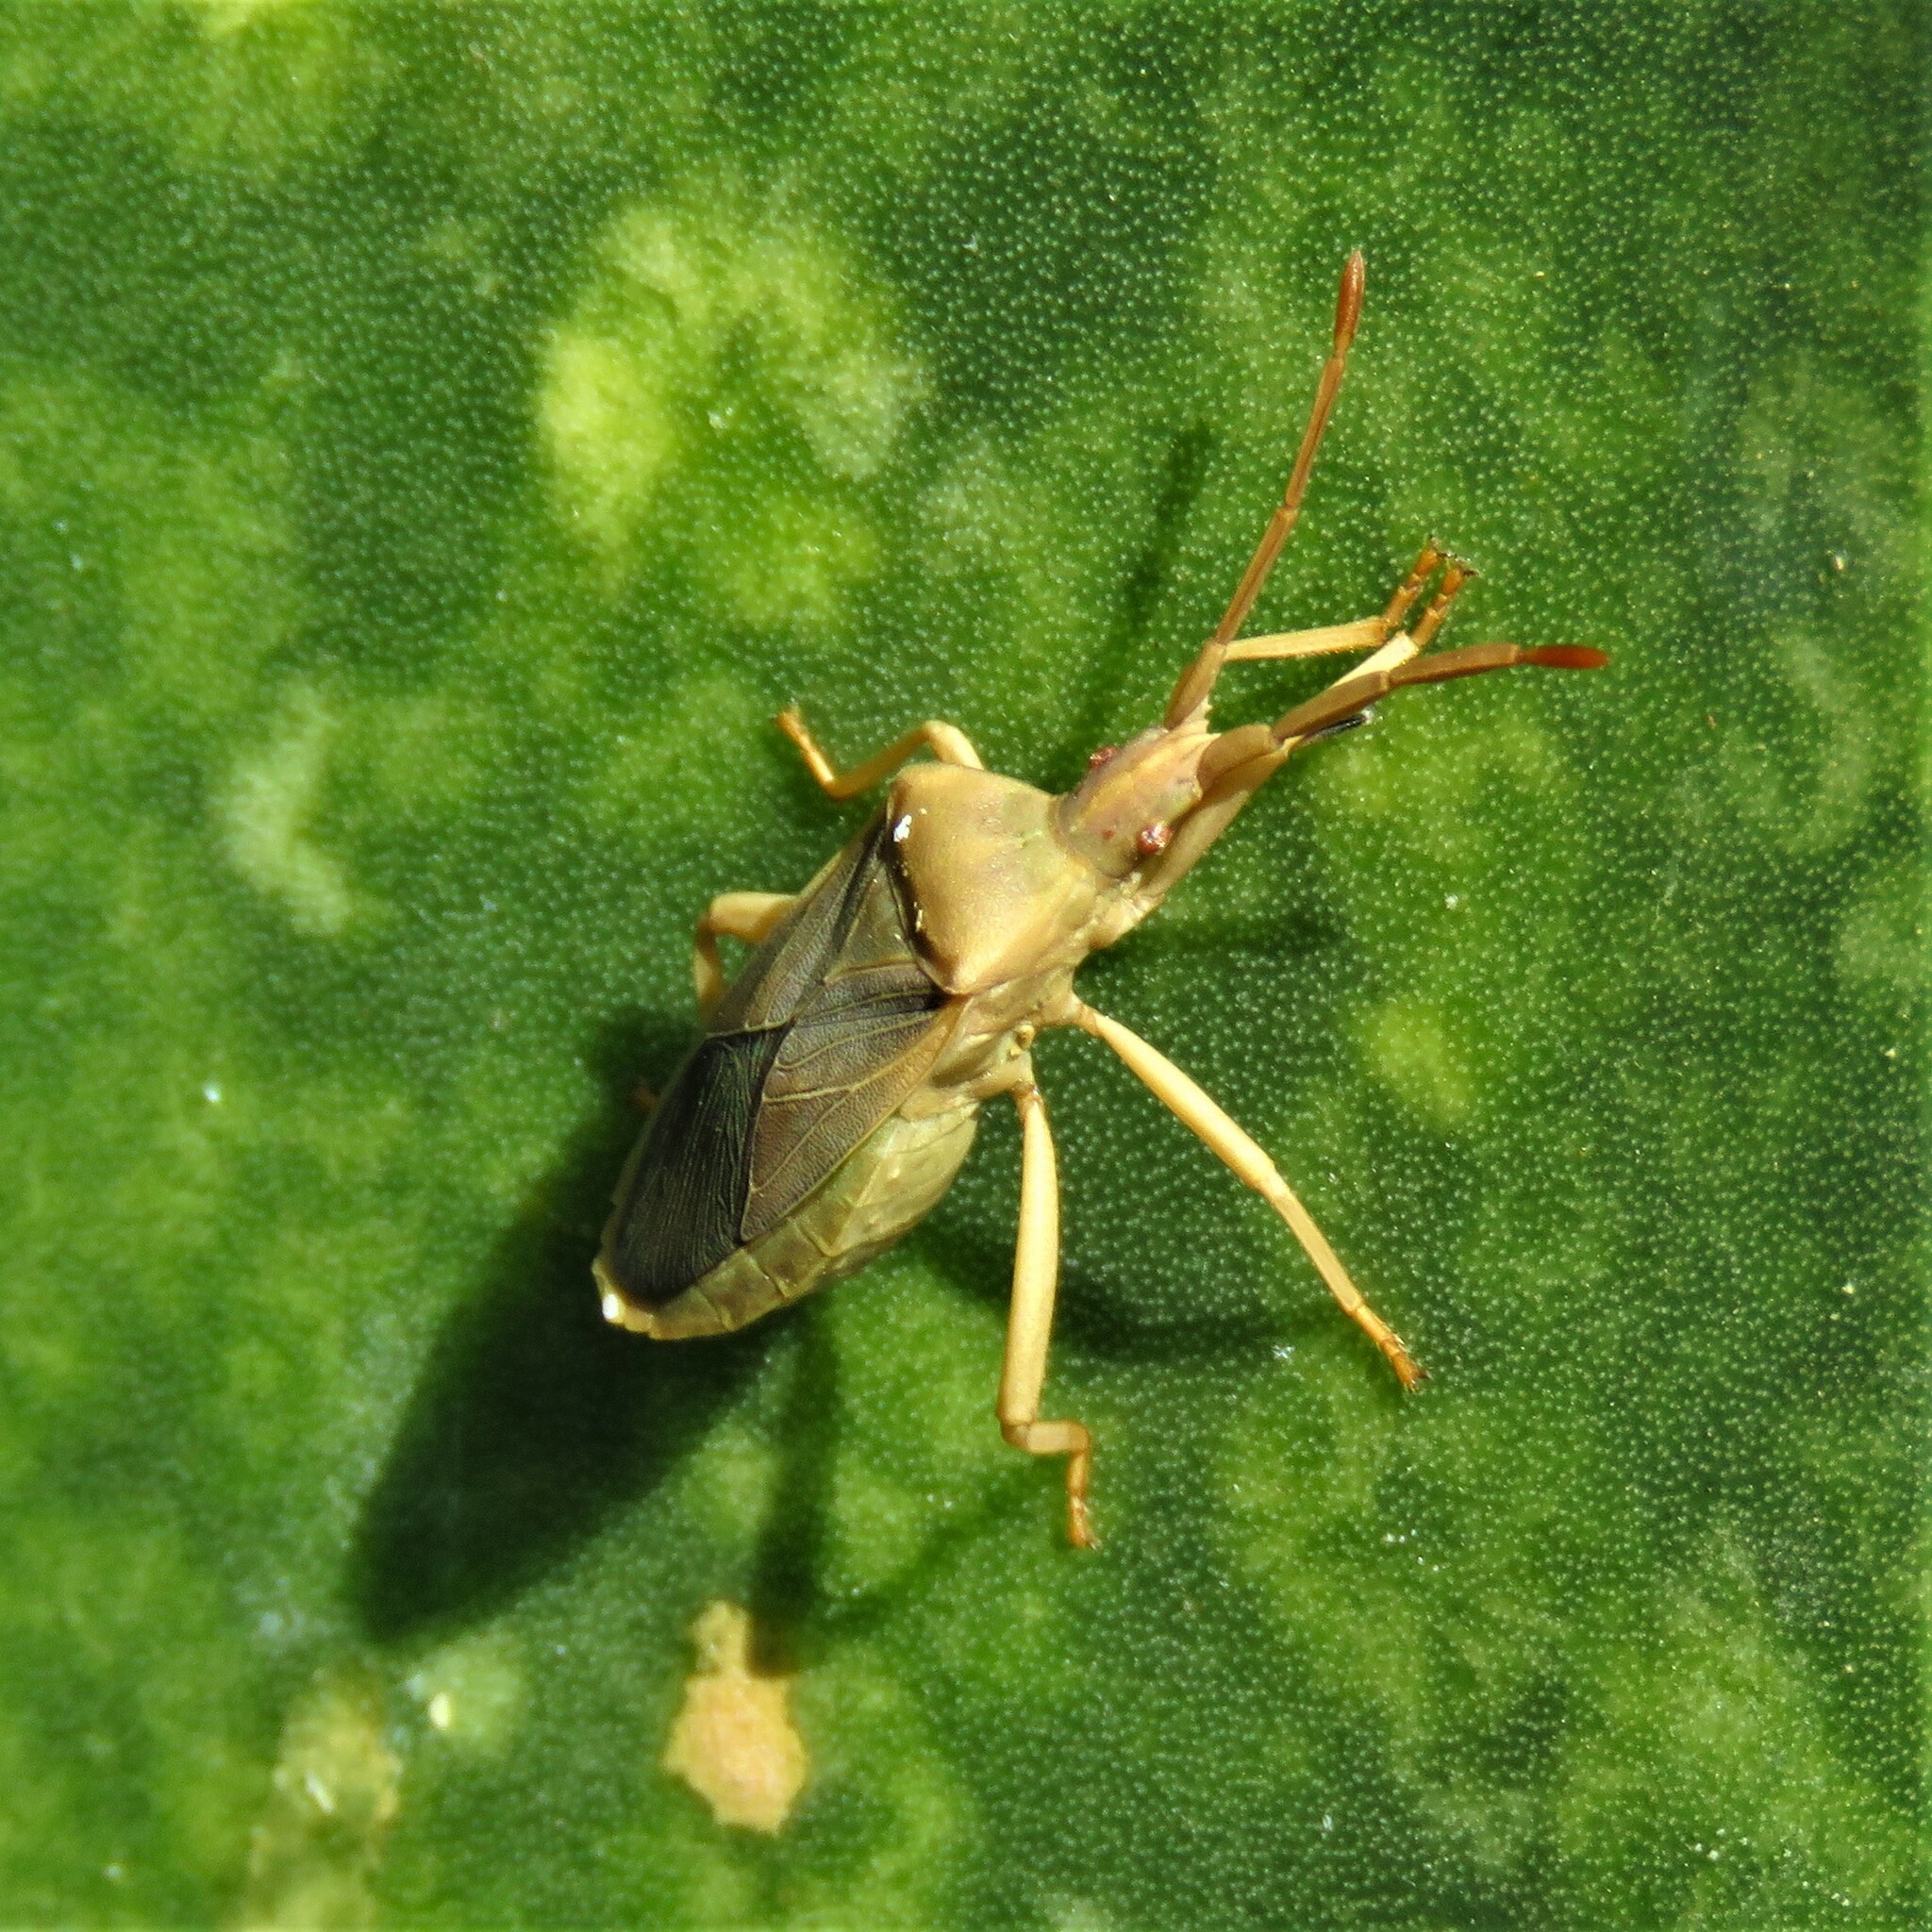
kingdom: Animalia
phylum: Arthropoda
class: Insecta
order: Hemiptera
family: Coreidae
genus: Chelinidea
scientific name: Chelinidea vittiger
